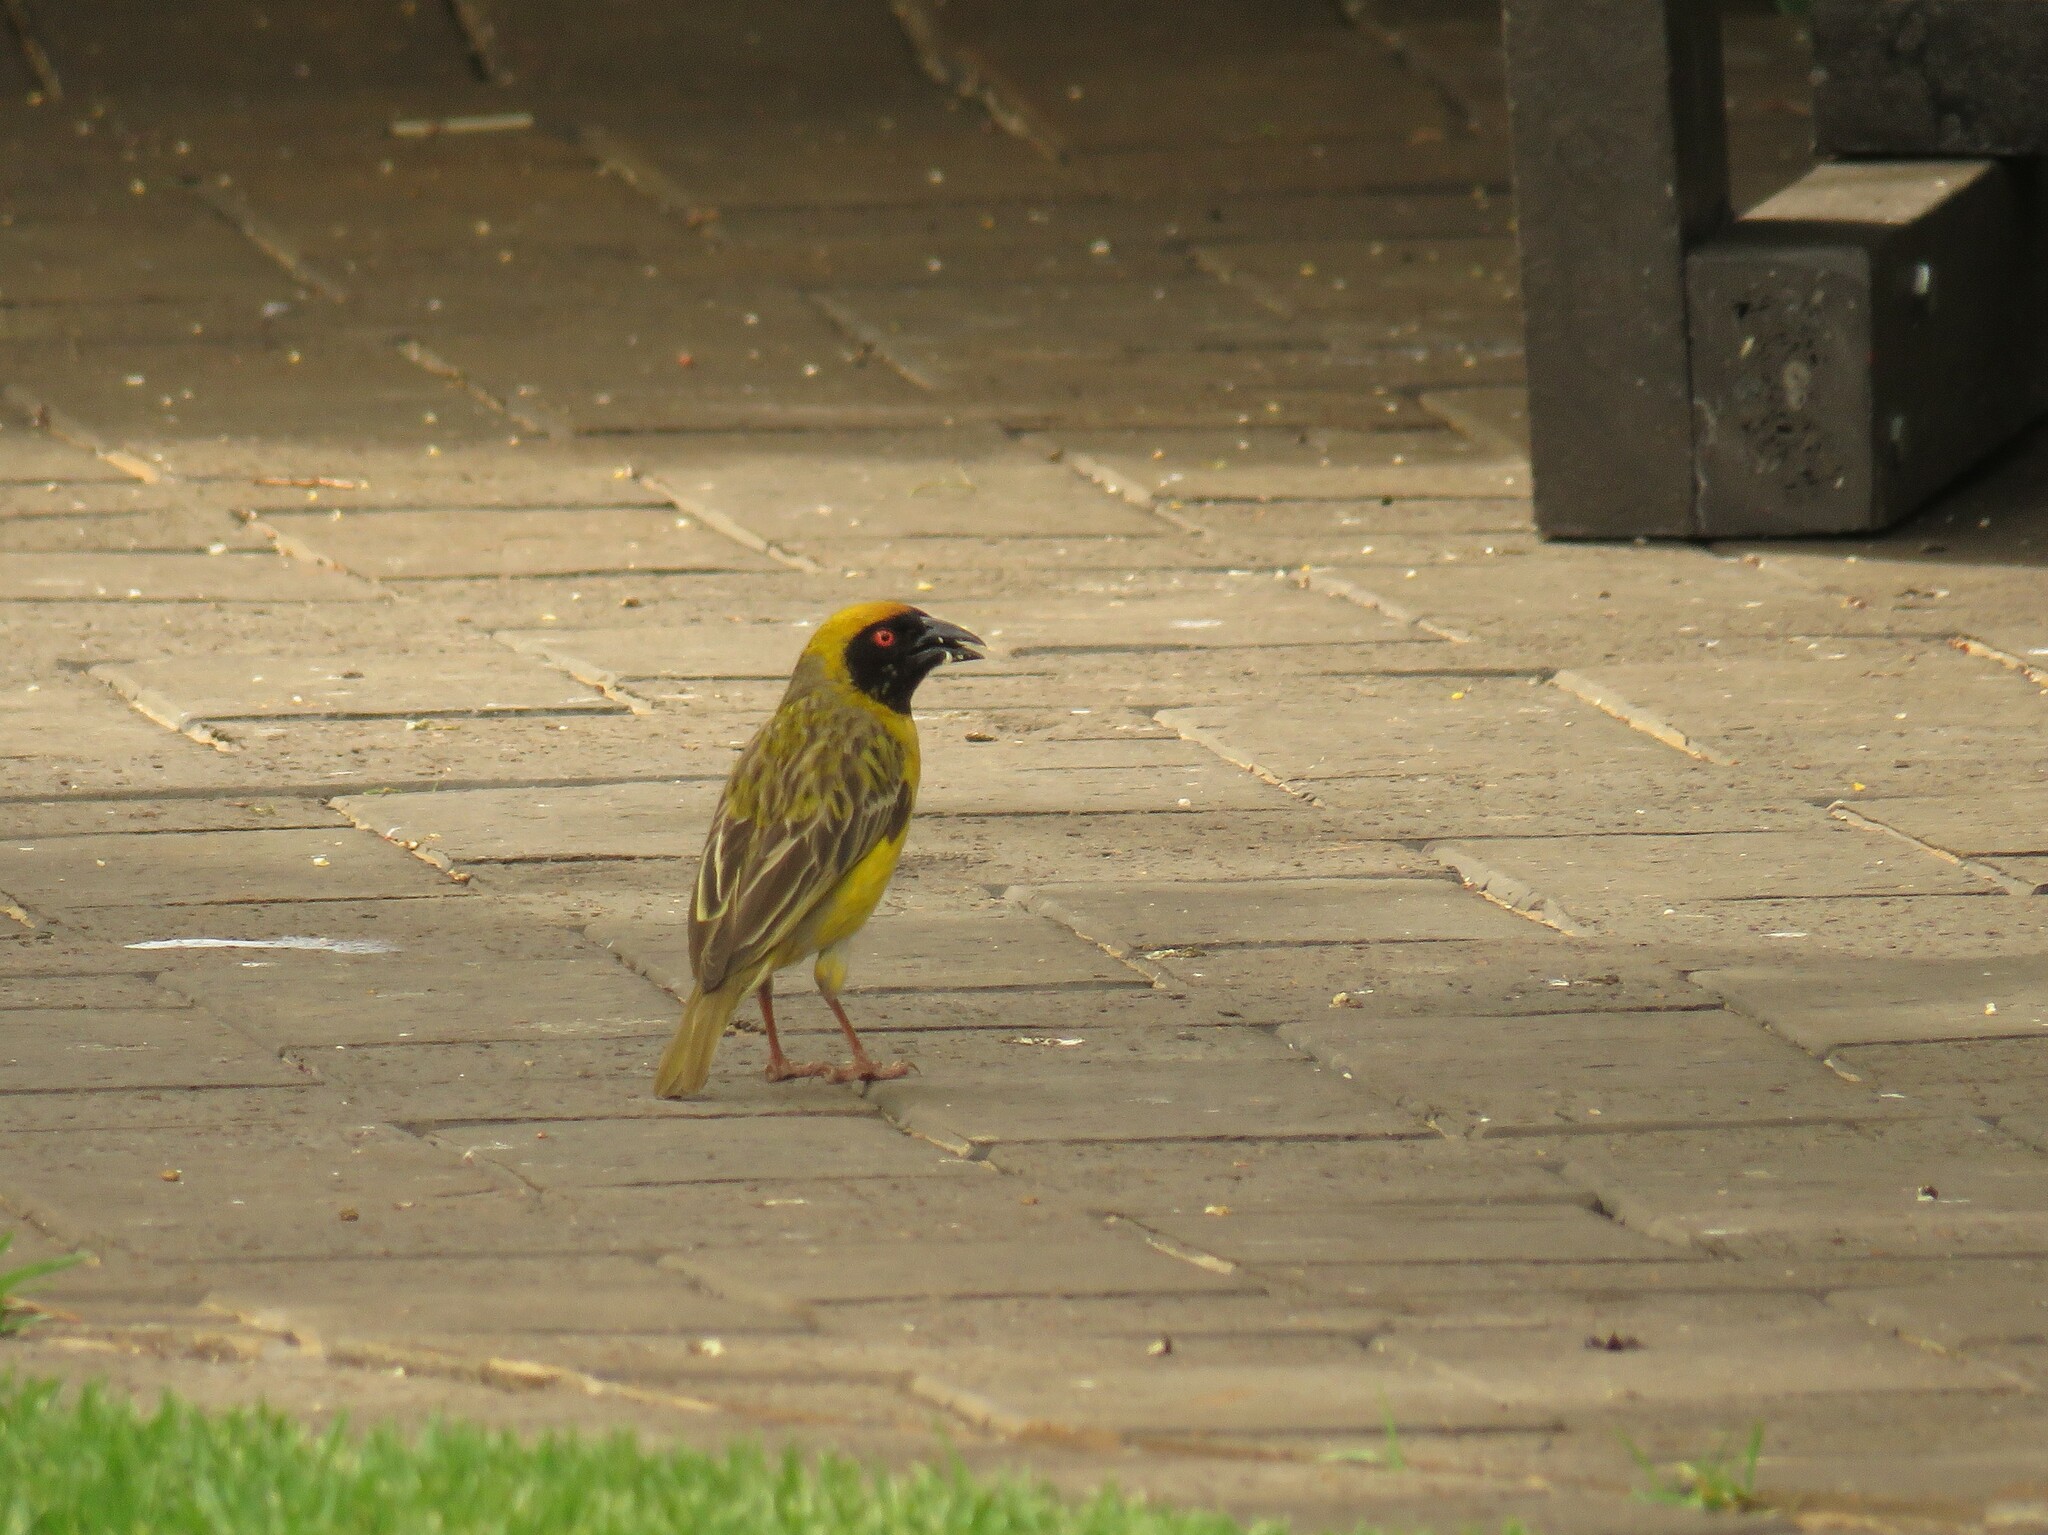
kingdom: Animalia
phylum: Chordata
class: Aves
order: Passeriformes
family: Ploceidae
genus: Ploceus
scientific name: Ploceus velatus
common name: Southern masked weaver
